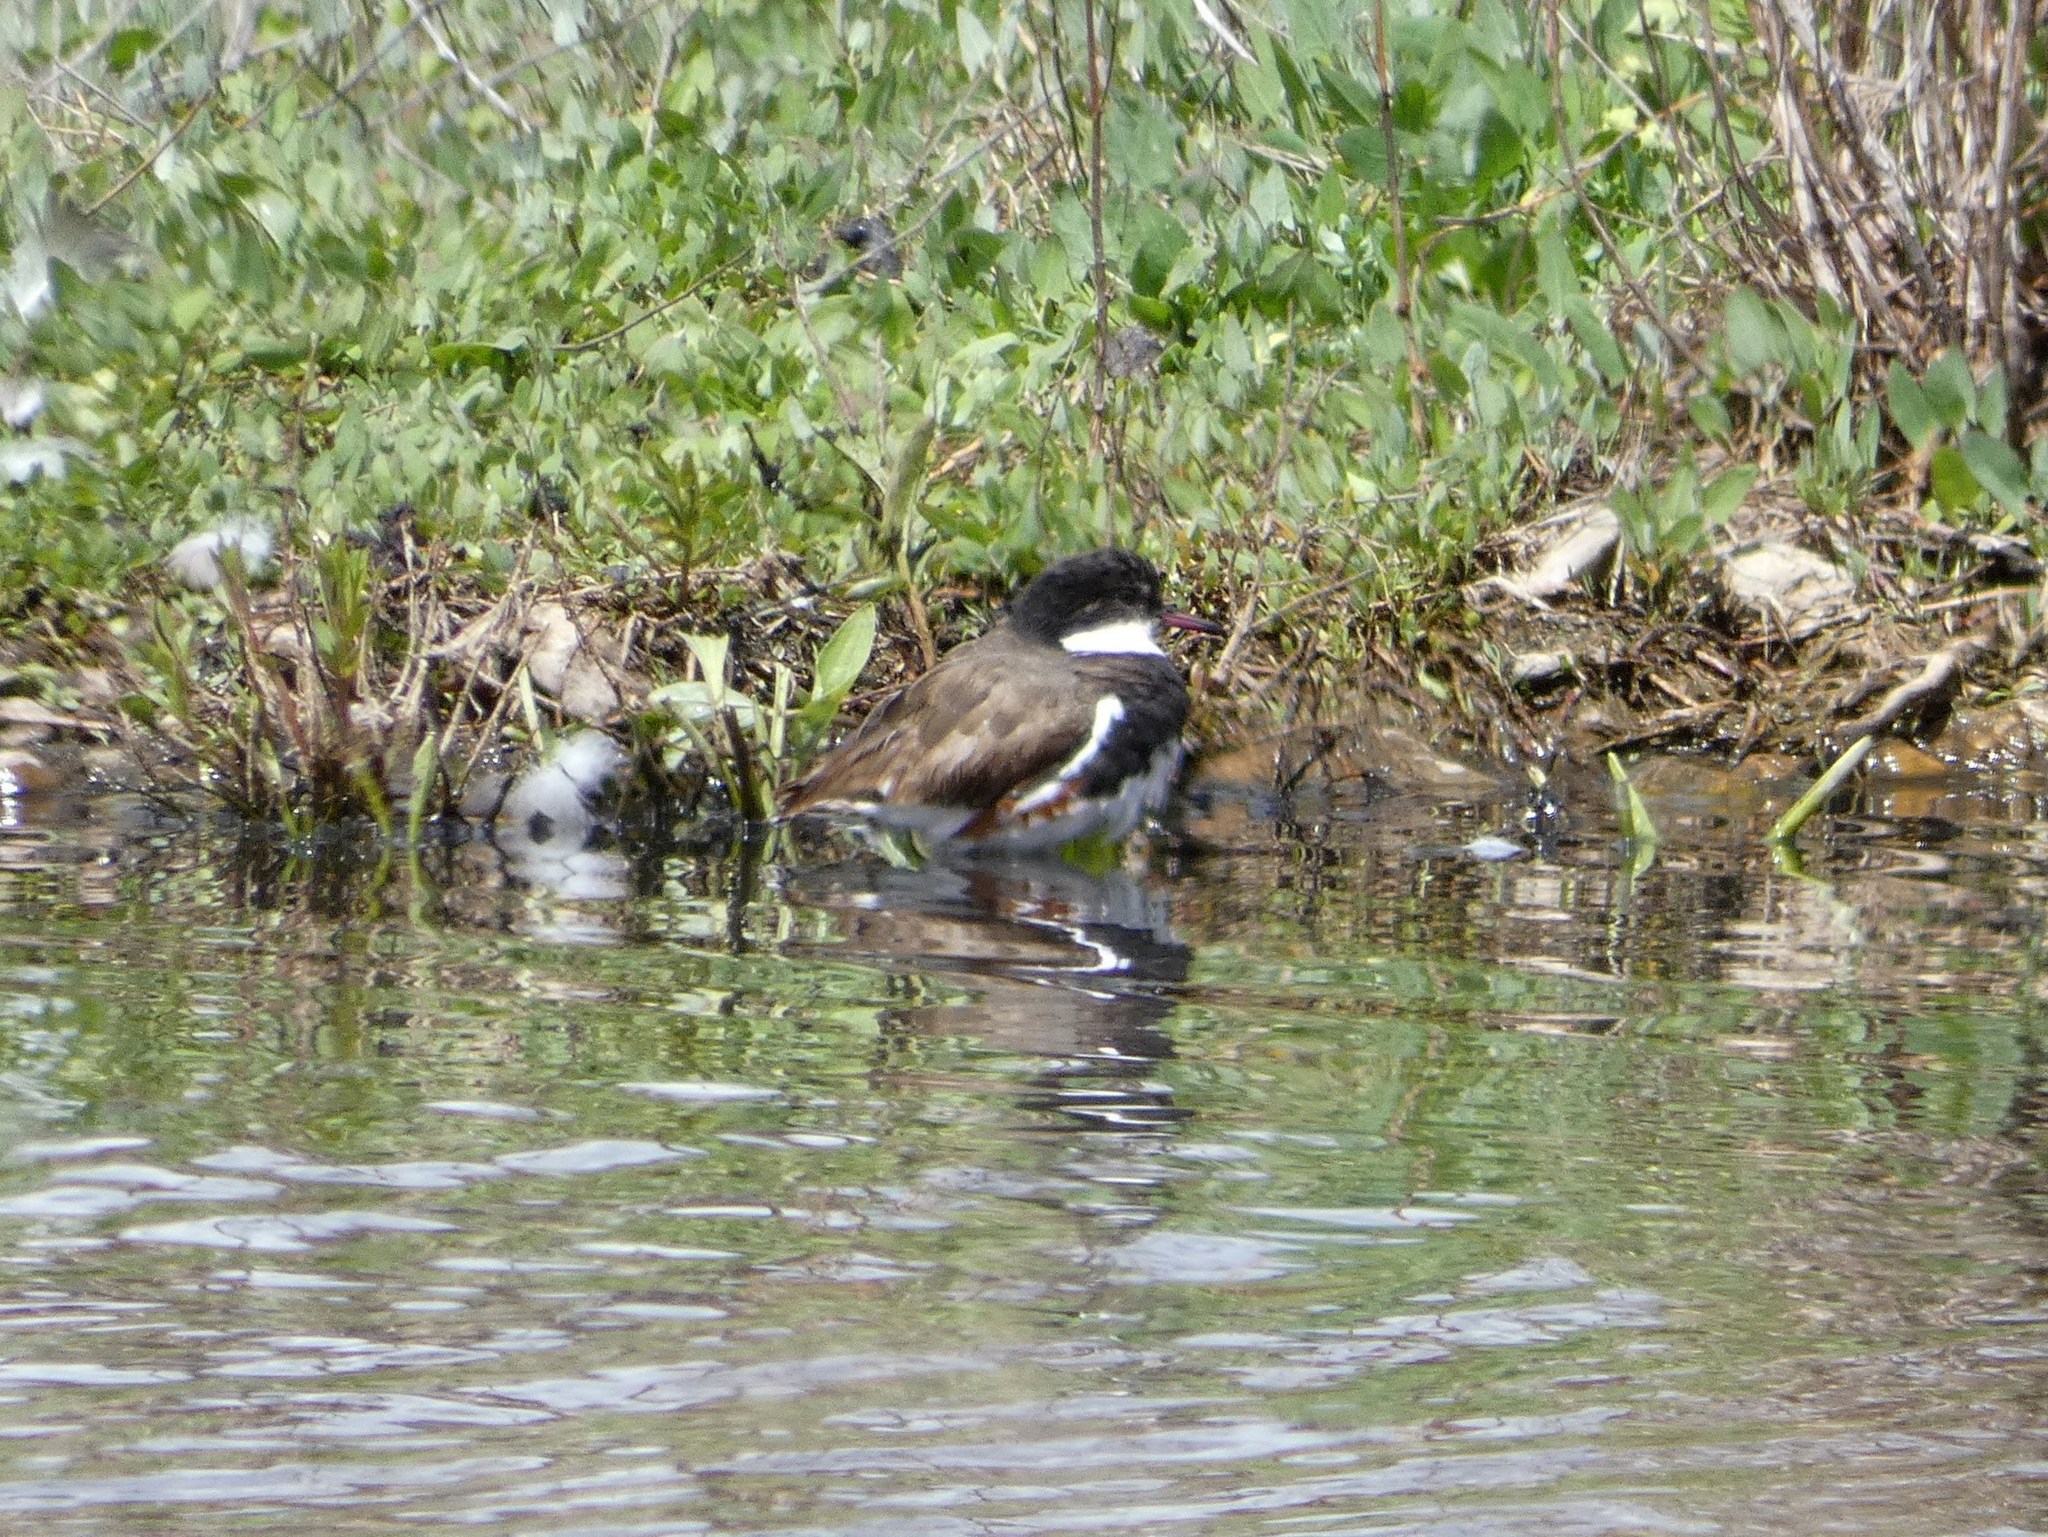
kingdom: Animalia
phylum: Chordata
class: Aves
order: Charadriiformes
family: Charadriidae
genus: Erythrogonys
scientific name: Erythrogonys cinctus
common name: Red-kneed dotterel
